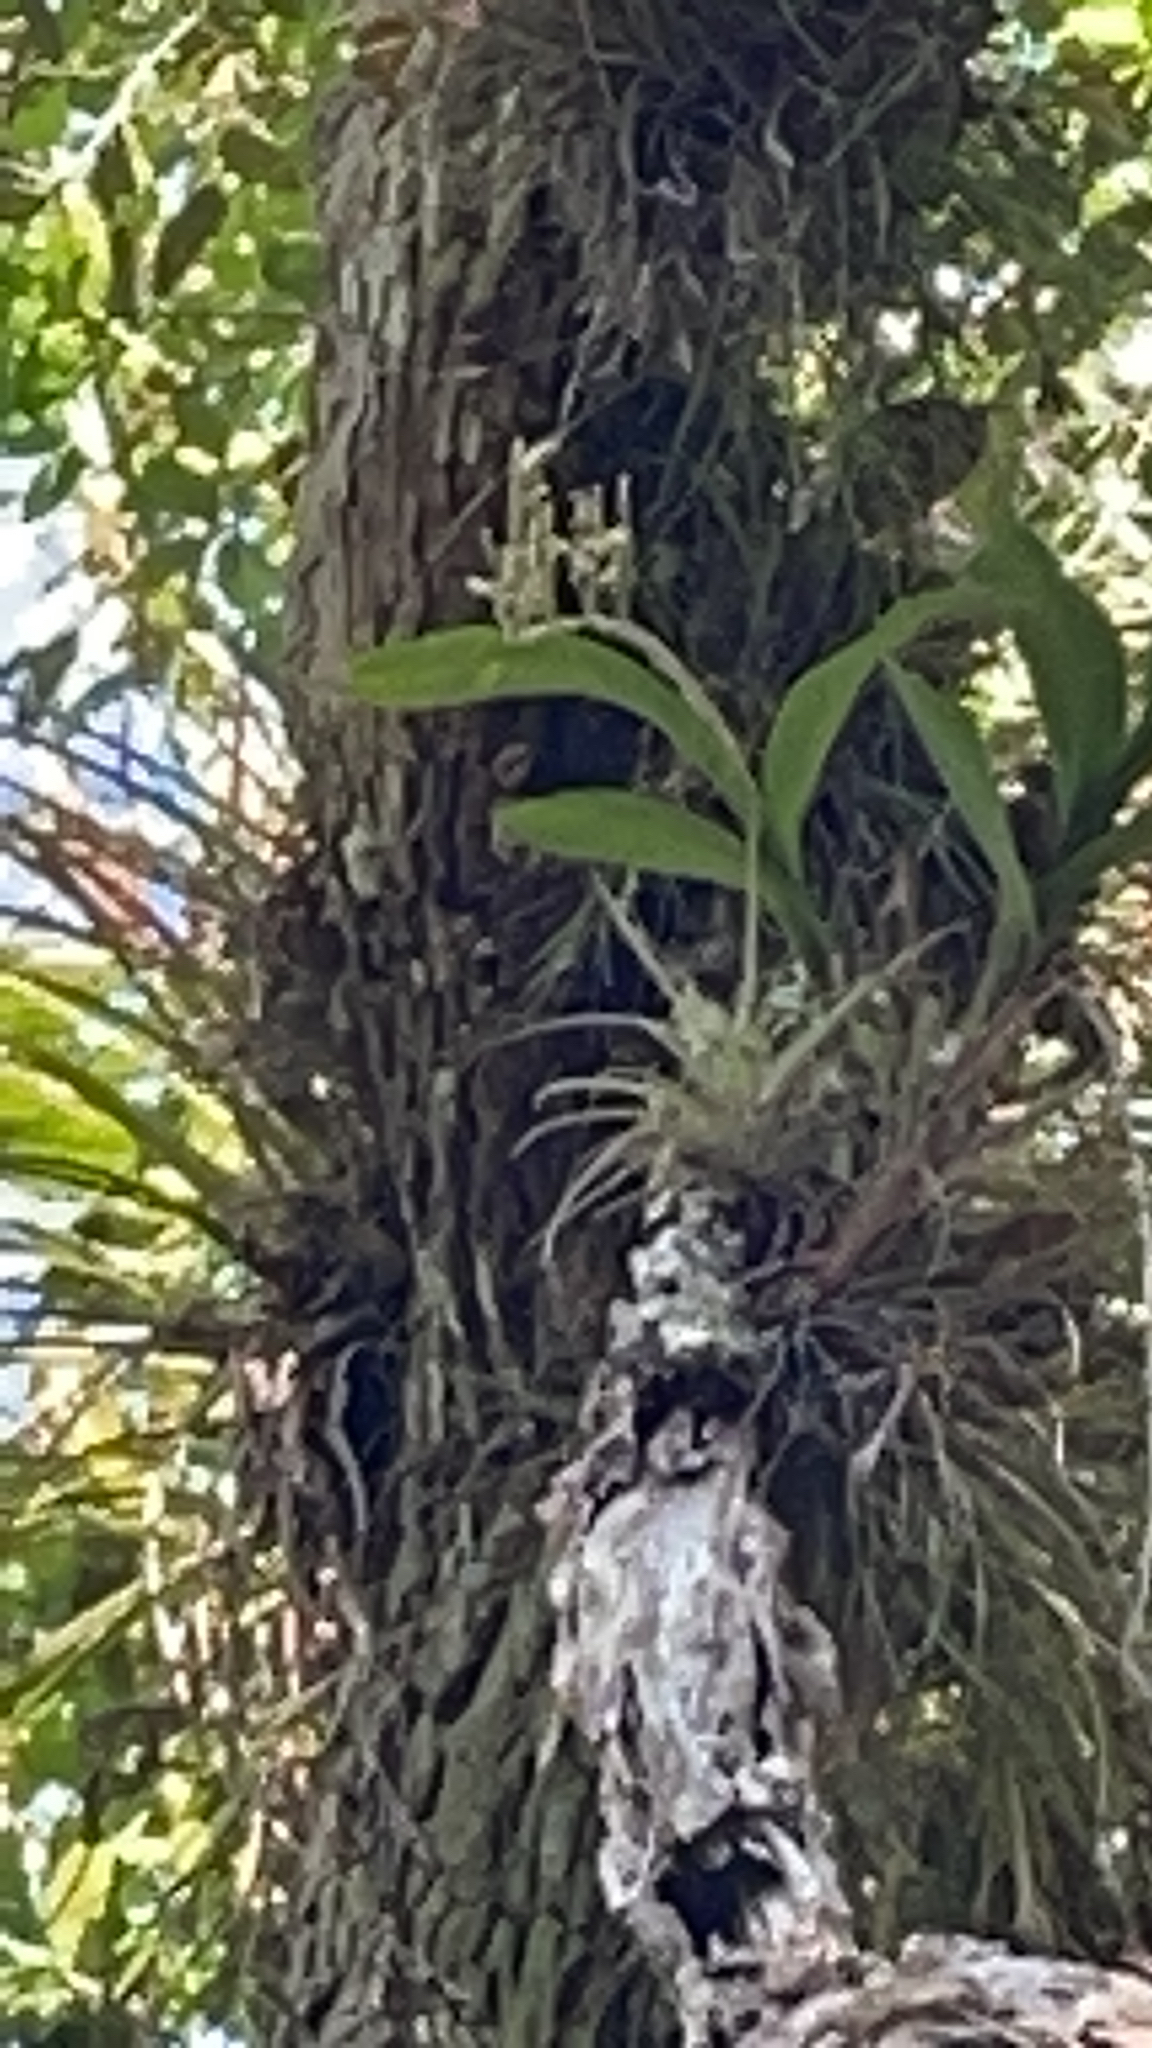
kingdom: Plantae
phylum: Tracheophyta
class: Liliopsida
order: Asparagales
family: Orchidaceae
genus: Polystachya
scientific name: Polystachya concreta
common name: Greater yellowspike orchid
